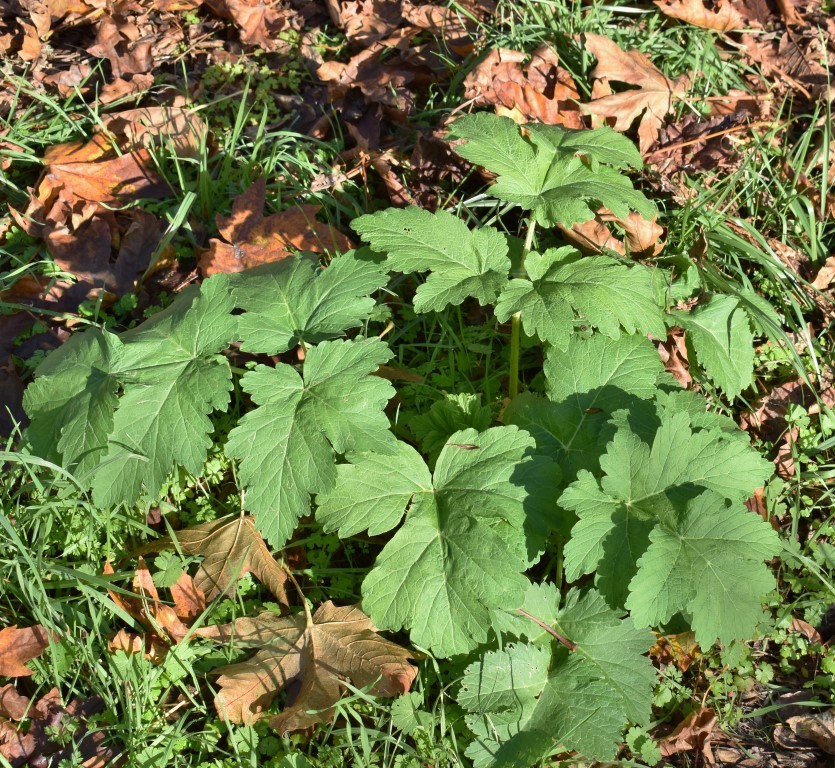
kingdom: Plantae
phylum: Tracheophyta
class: Magnoliopsida
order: Apiales
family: Apiaceae
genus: Heracleum
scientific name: Heracleum maximum
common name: American cow parsnip
